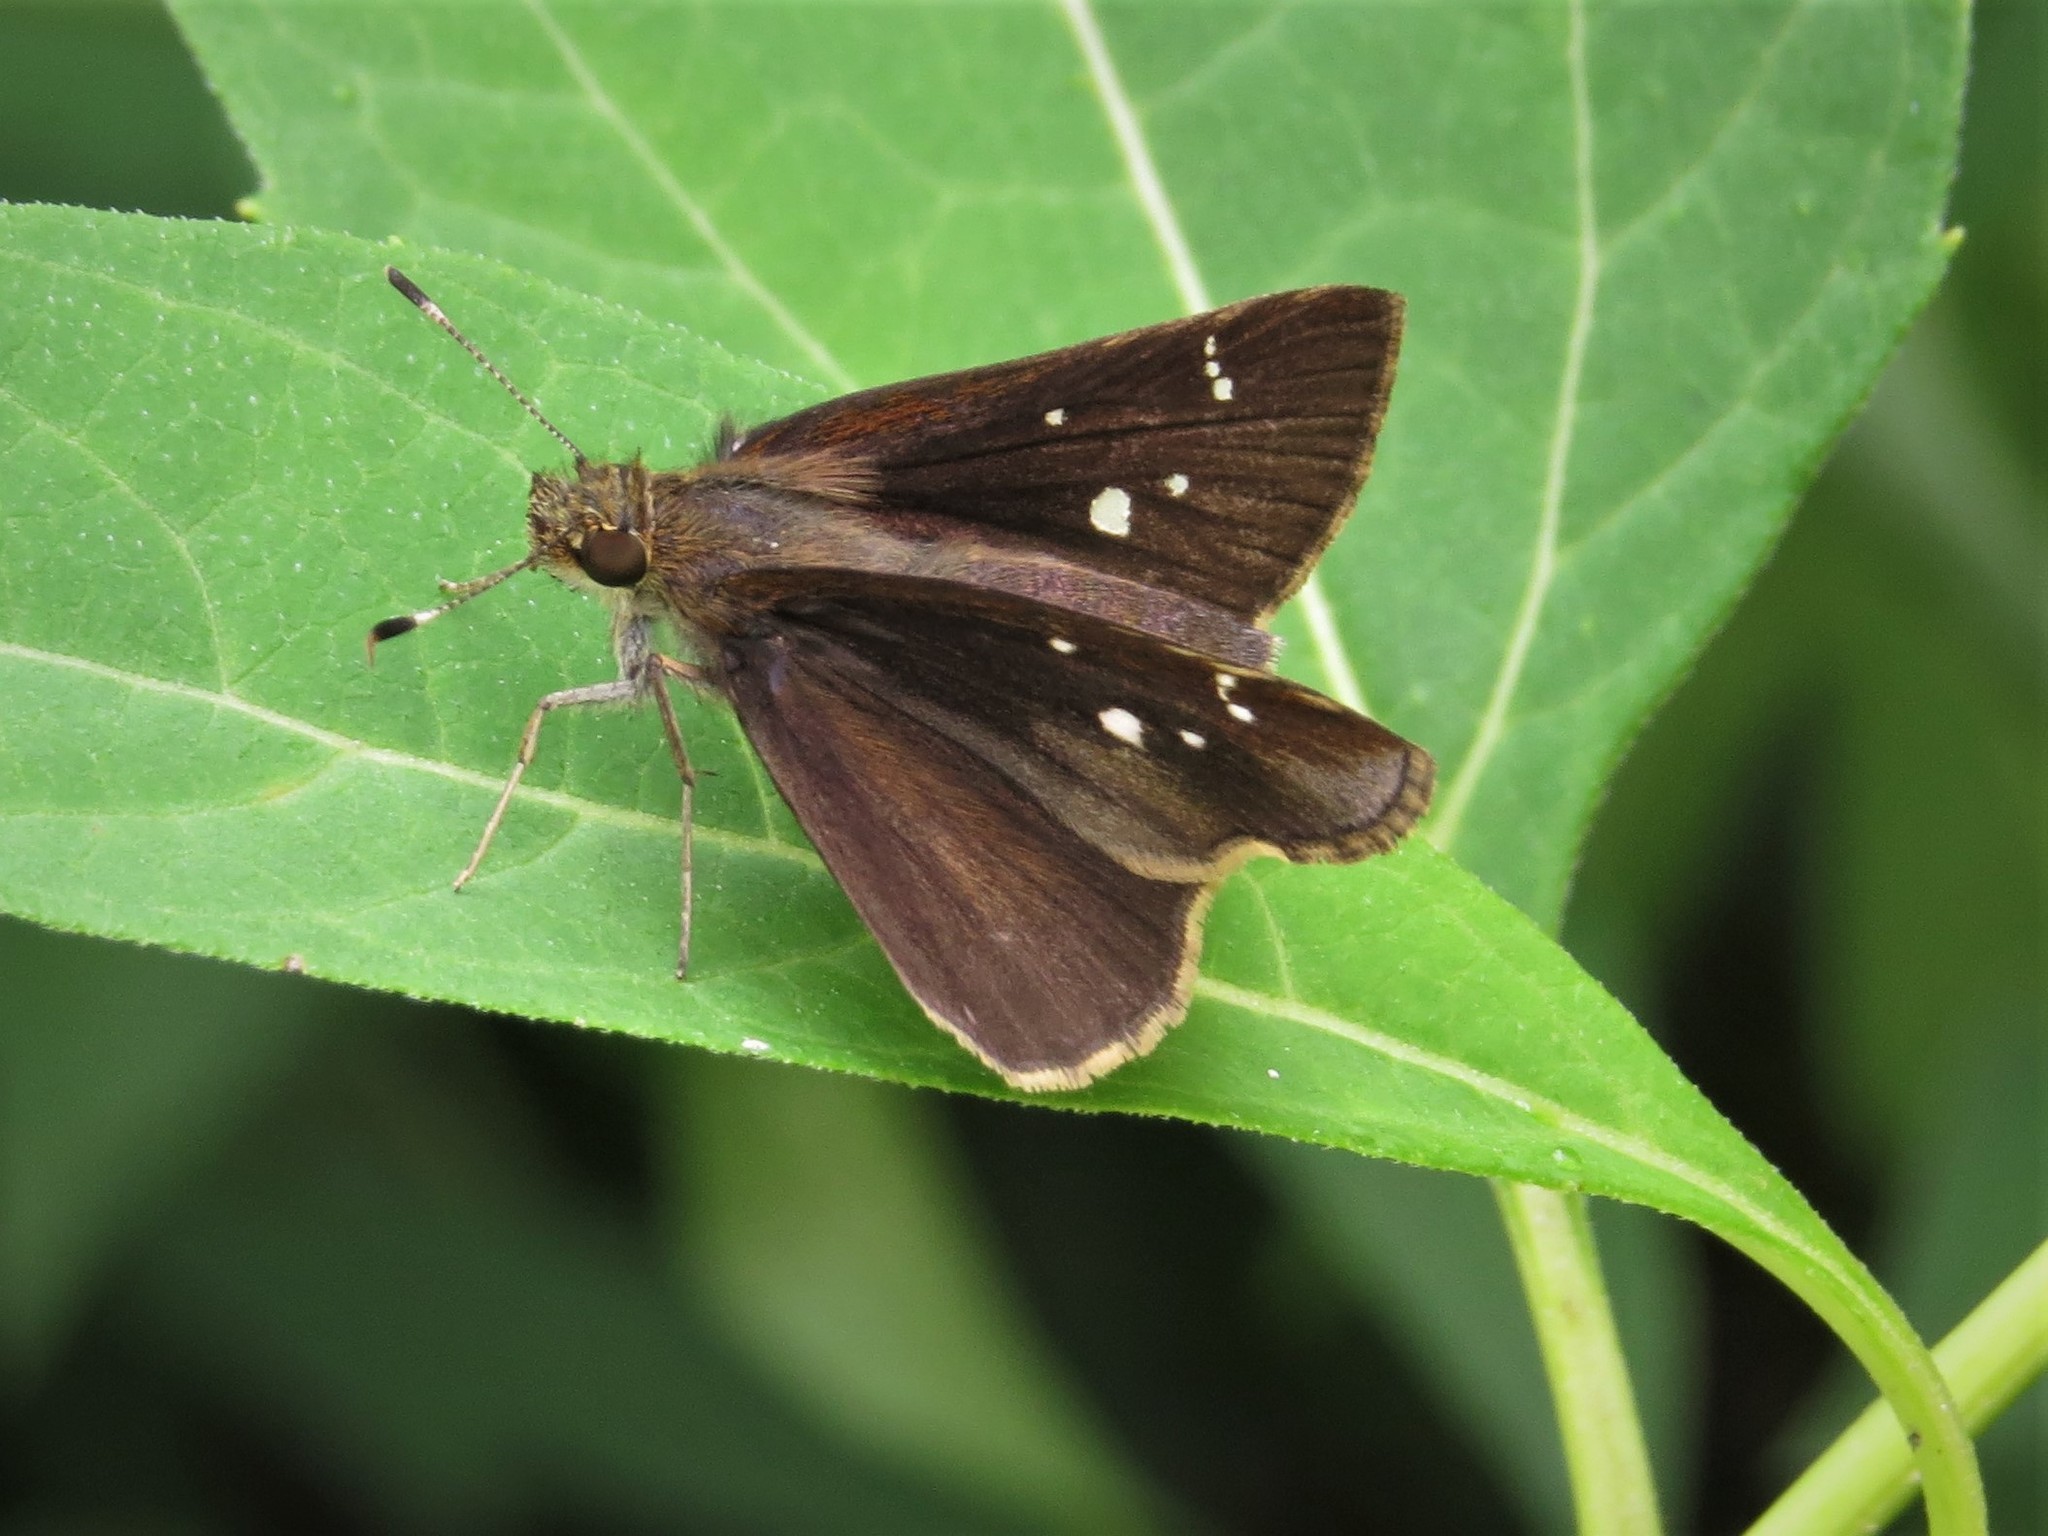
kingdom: Animalia
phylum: Arthropoda
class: Insecta
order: Lepidoptera
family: Hesperiidae
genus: Lerema
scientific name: Lerema accius
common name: Clouded skipper
